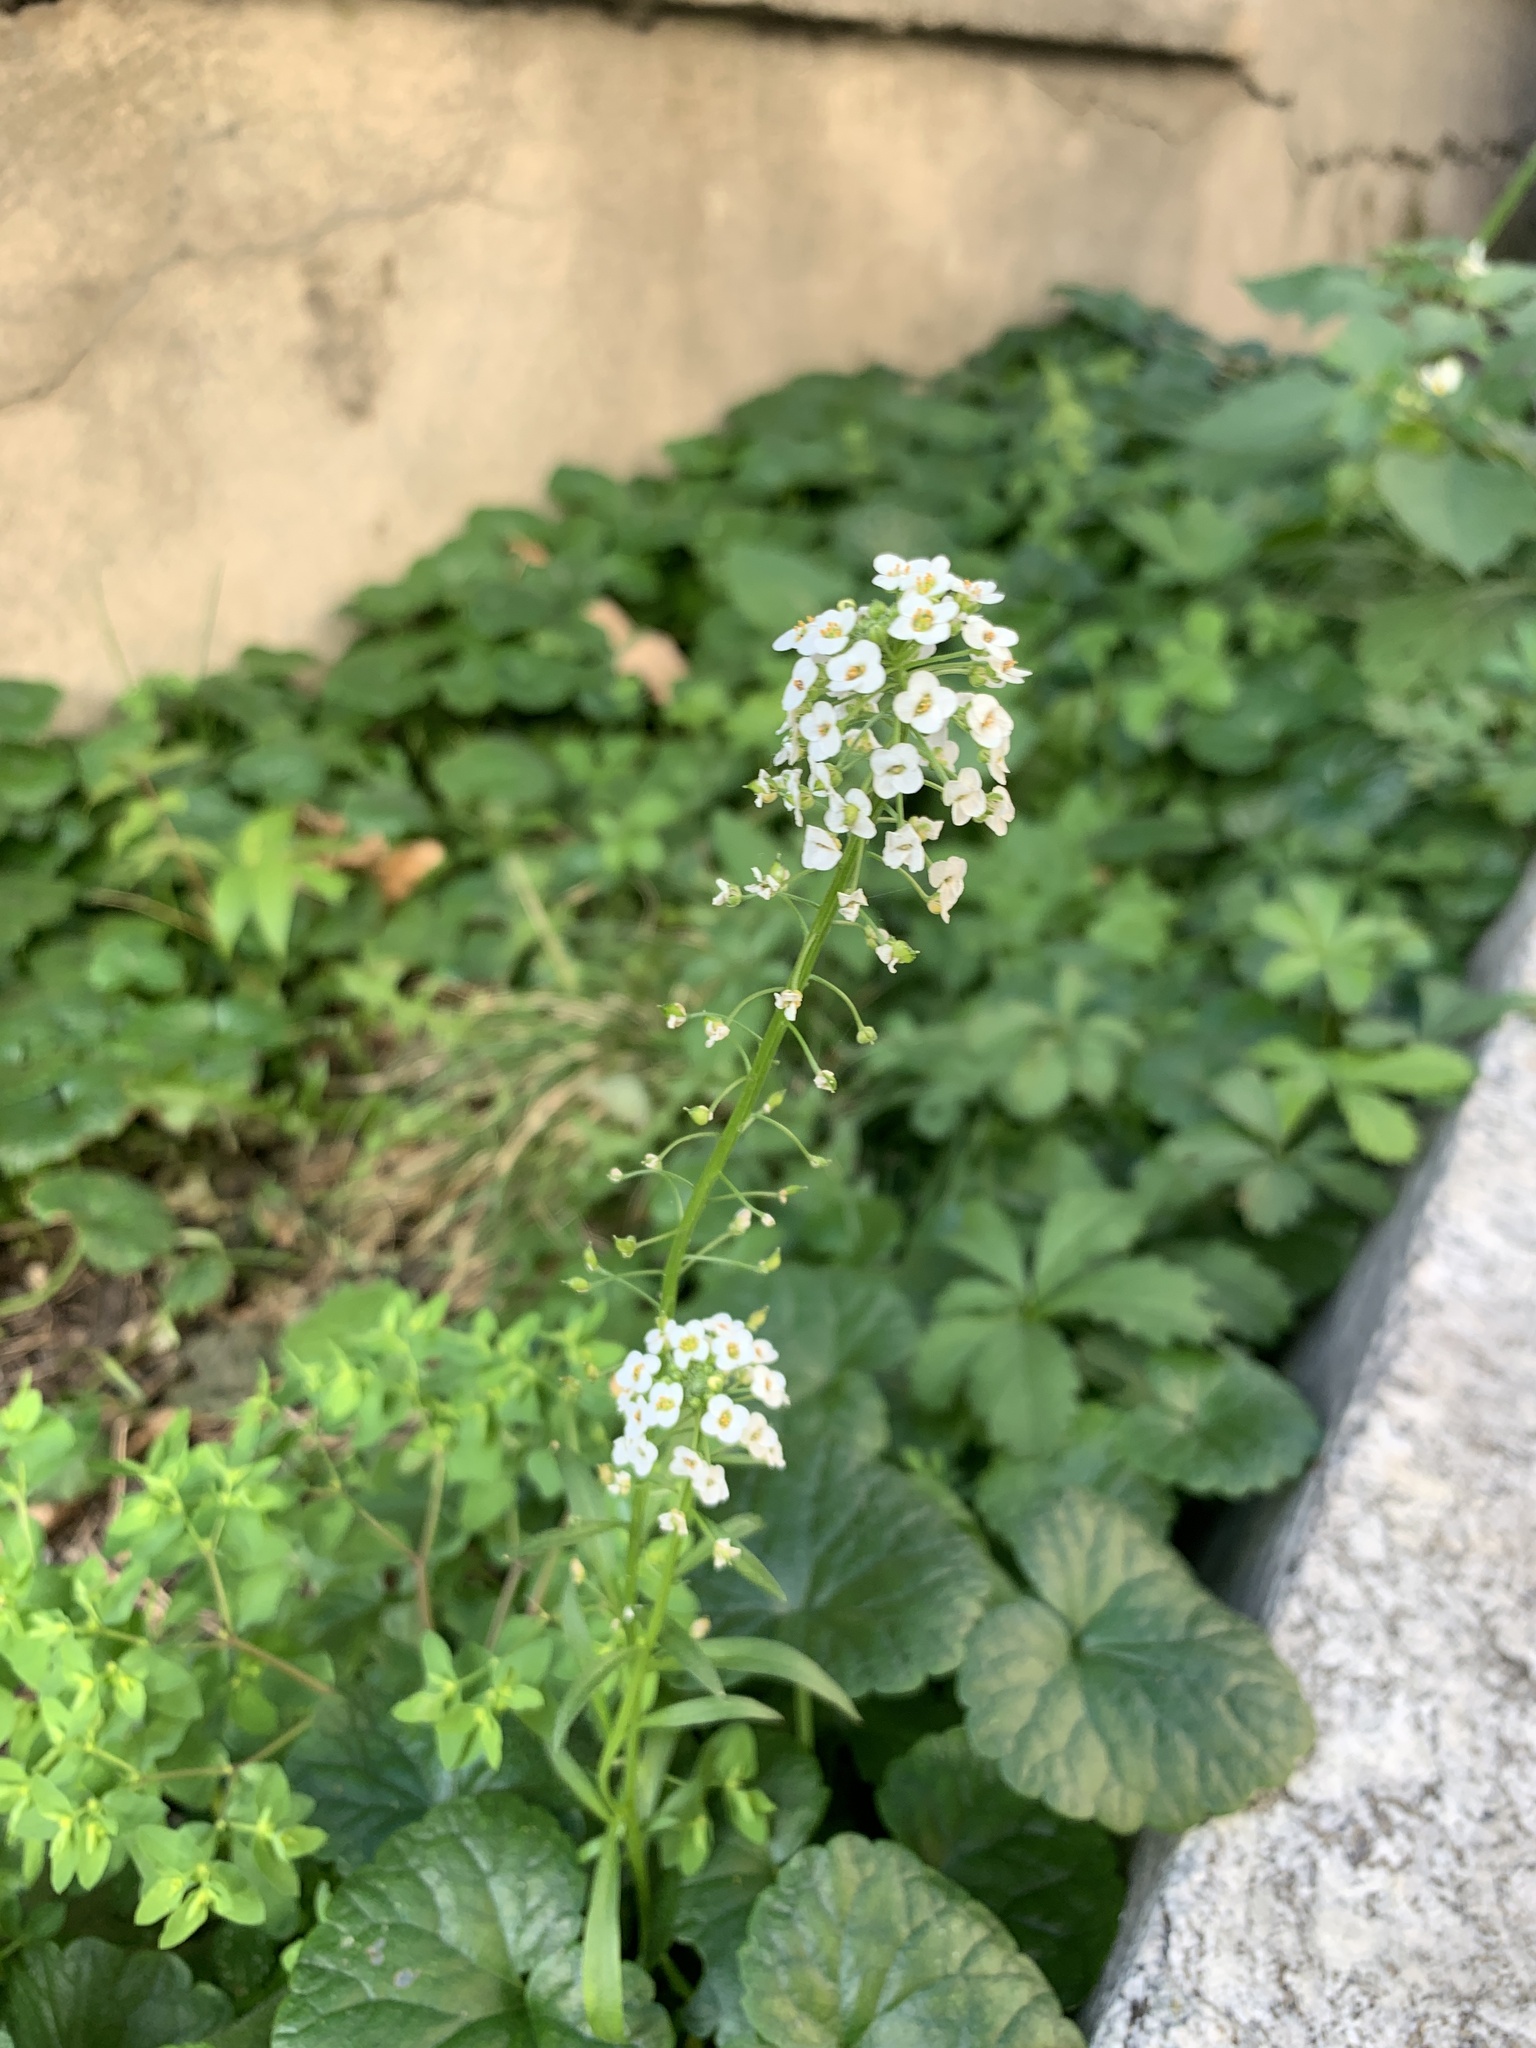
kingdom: Plantae
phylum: Tracheophyta
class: Magnoliopsida
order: Brassicales
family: Brassicaceae
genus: Lobularia
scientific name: Lobularia maritima
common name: Sweet alison
